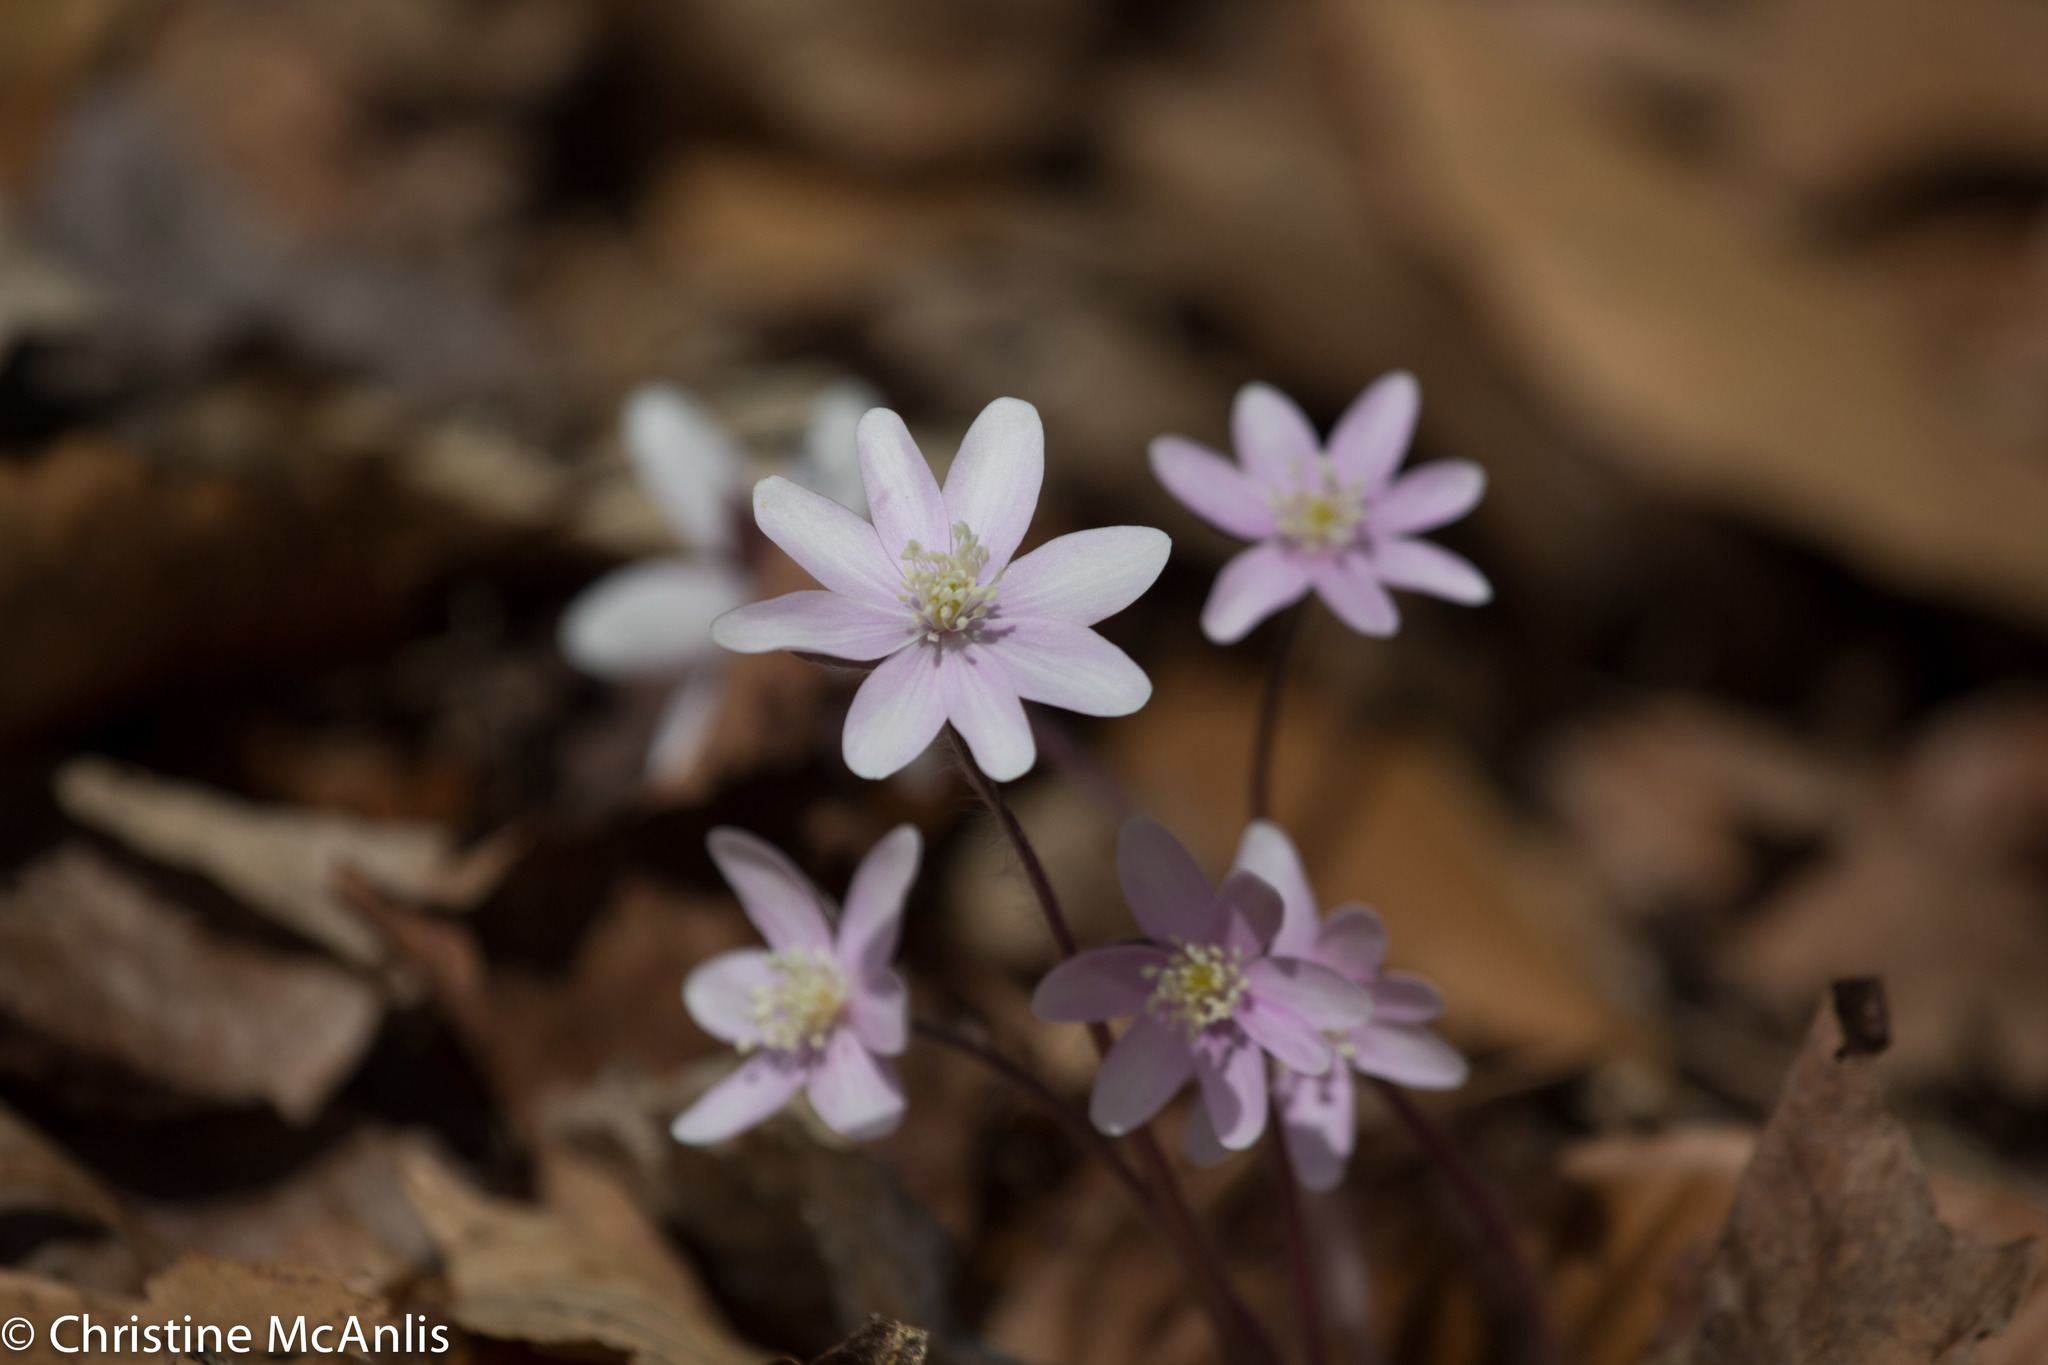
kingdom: Plantae
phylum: Tracheophyta
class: Magnoliopsida
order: Ranunculales
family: Ranunculaceae
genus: Hepatica
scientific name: Hepatica acutiloba
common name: Sharp-lobed hepatica
